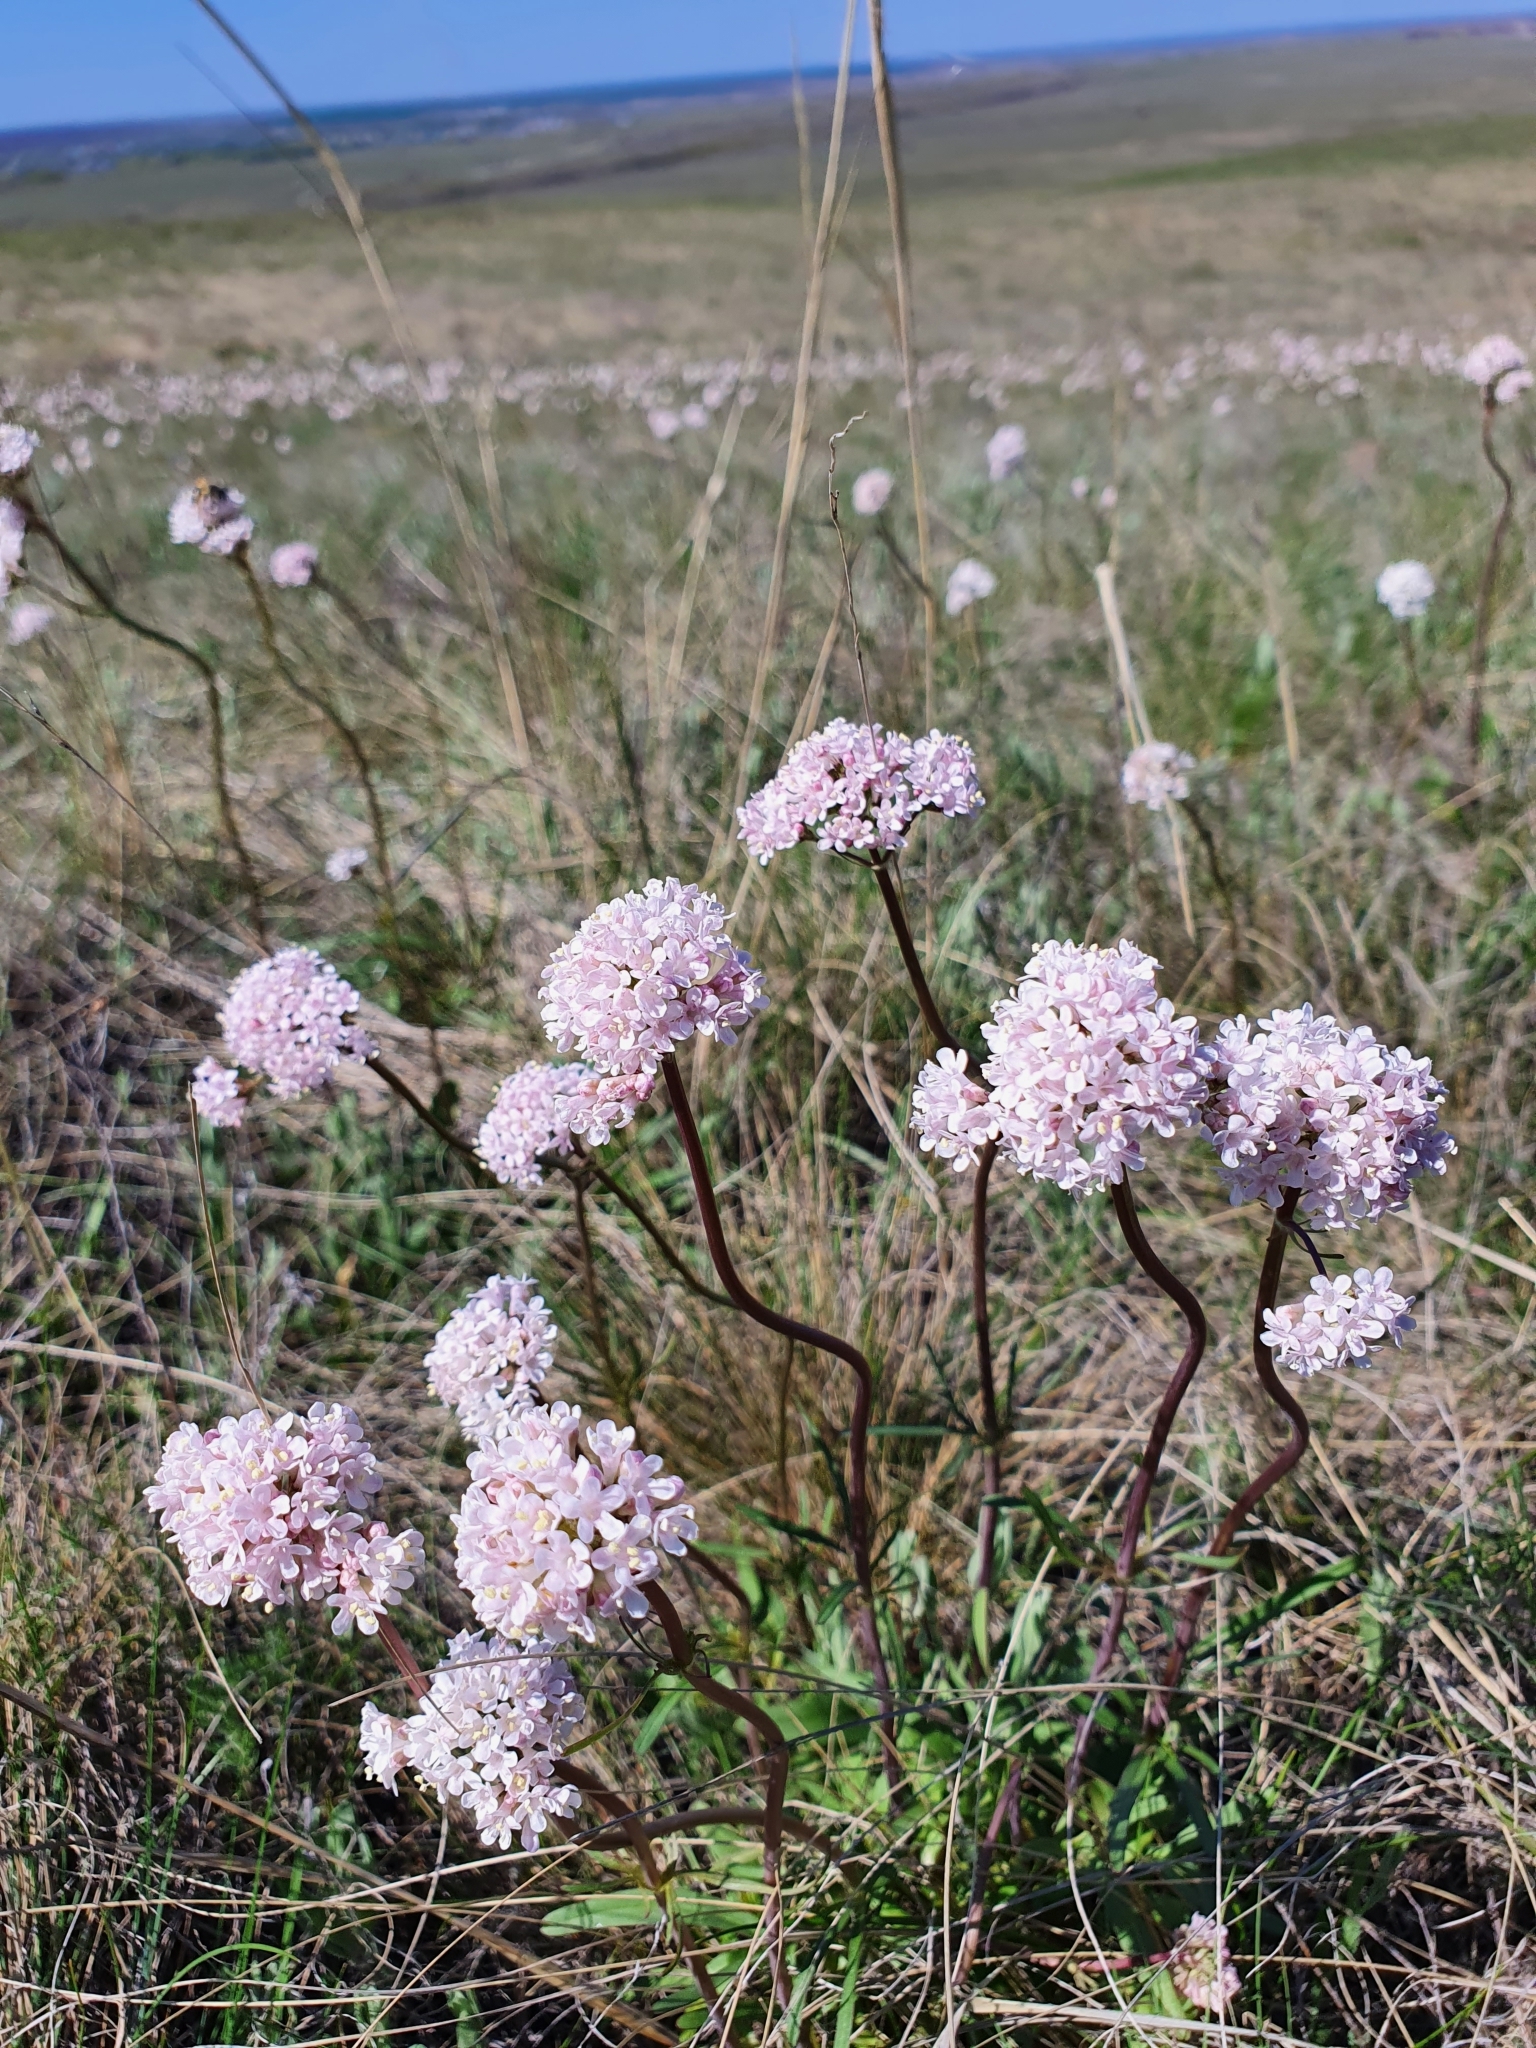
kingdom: Plantae
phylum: Tracheophyta
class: Magnoliopsida
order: Dipsacales
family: Caprifoliaceae
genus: Valeriana
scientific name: Valeriana tuberosa
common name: Tuberous valerian
